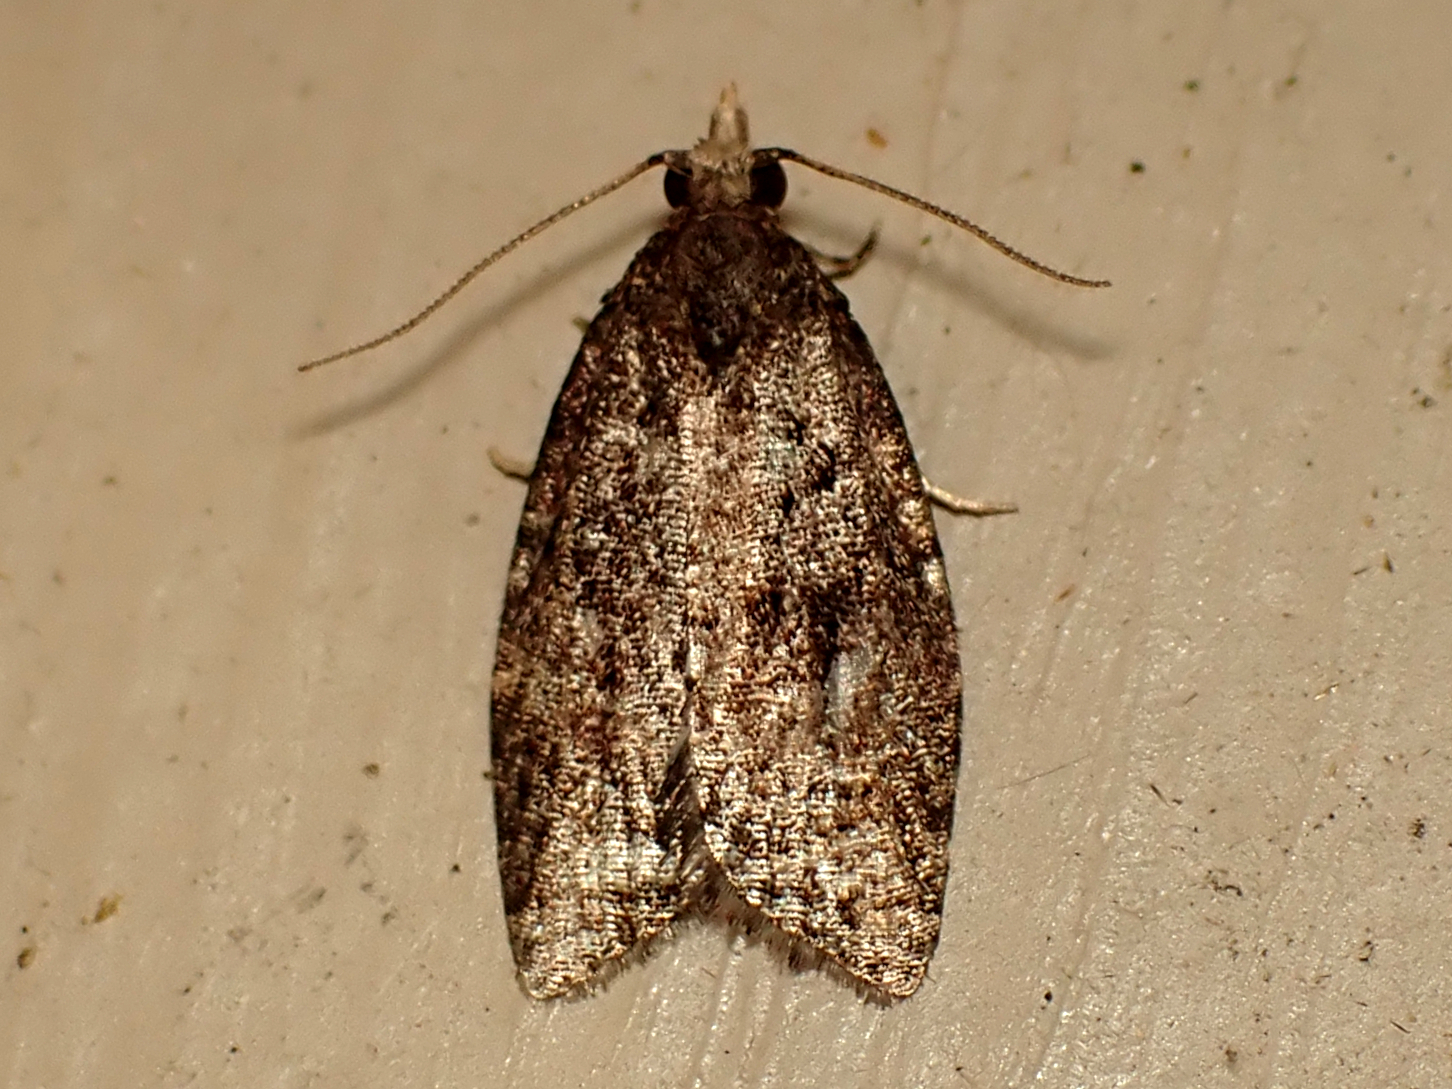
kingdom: Animalia
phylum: Arthropoda
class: Insecta
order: Lepidoptera
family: Tortricidae
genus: Capua
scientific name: Capua intractana
